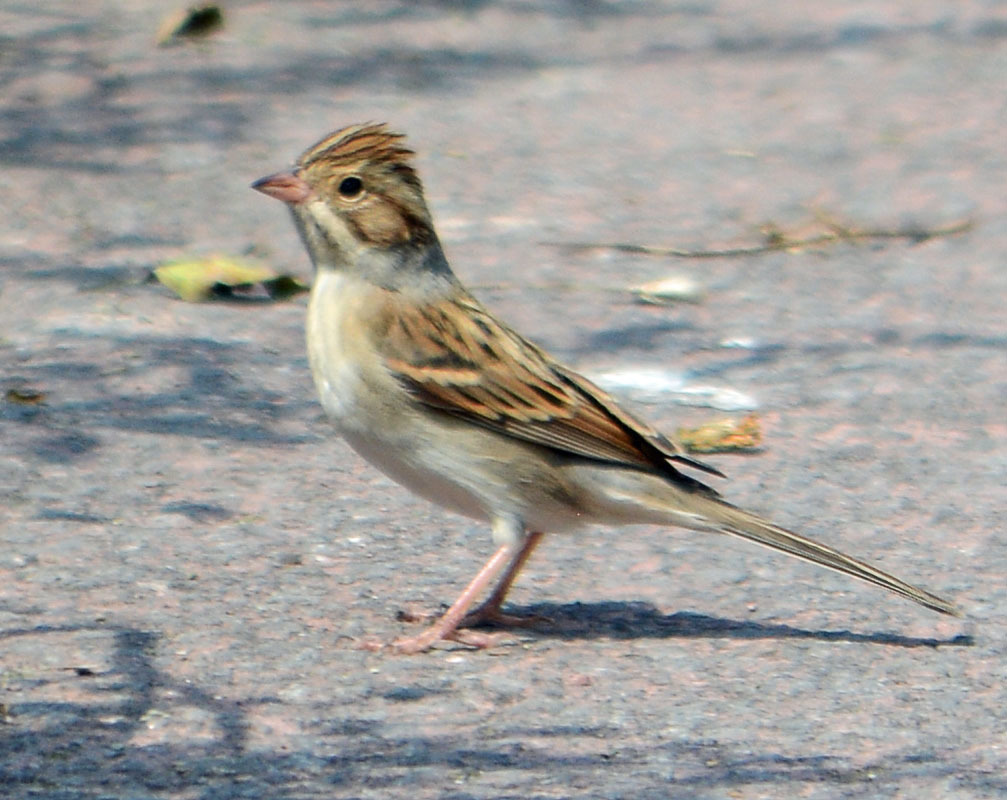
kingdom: Animalia
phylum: Chordata
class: Aves
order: Passeriformes
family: Passerellidae
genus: Spizella
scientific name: Spizella pallida
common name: Clay-colored sparrow
